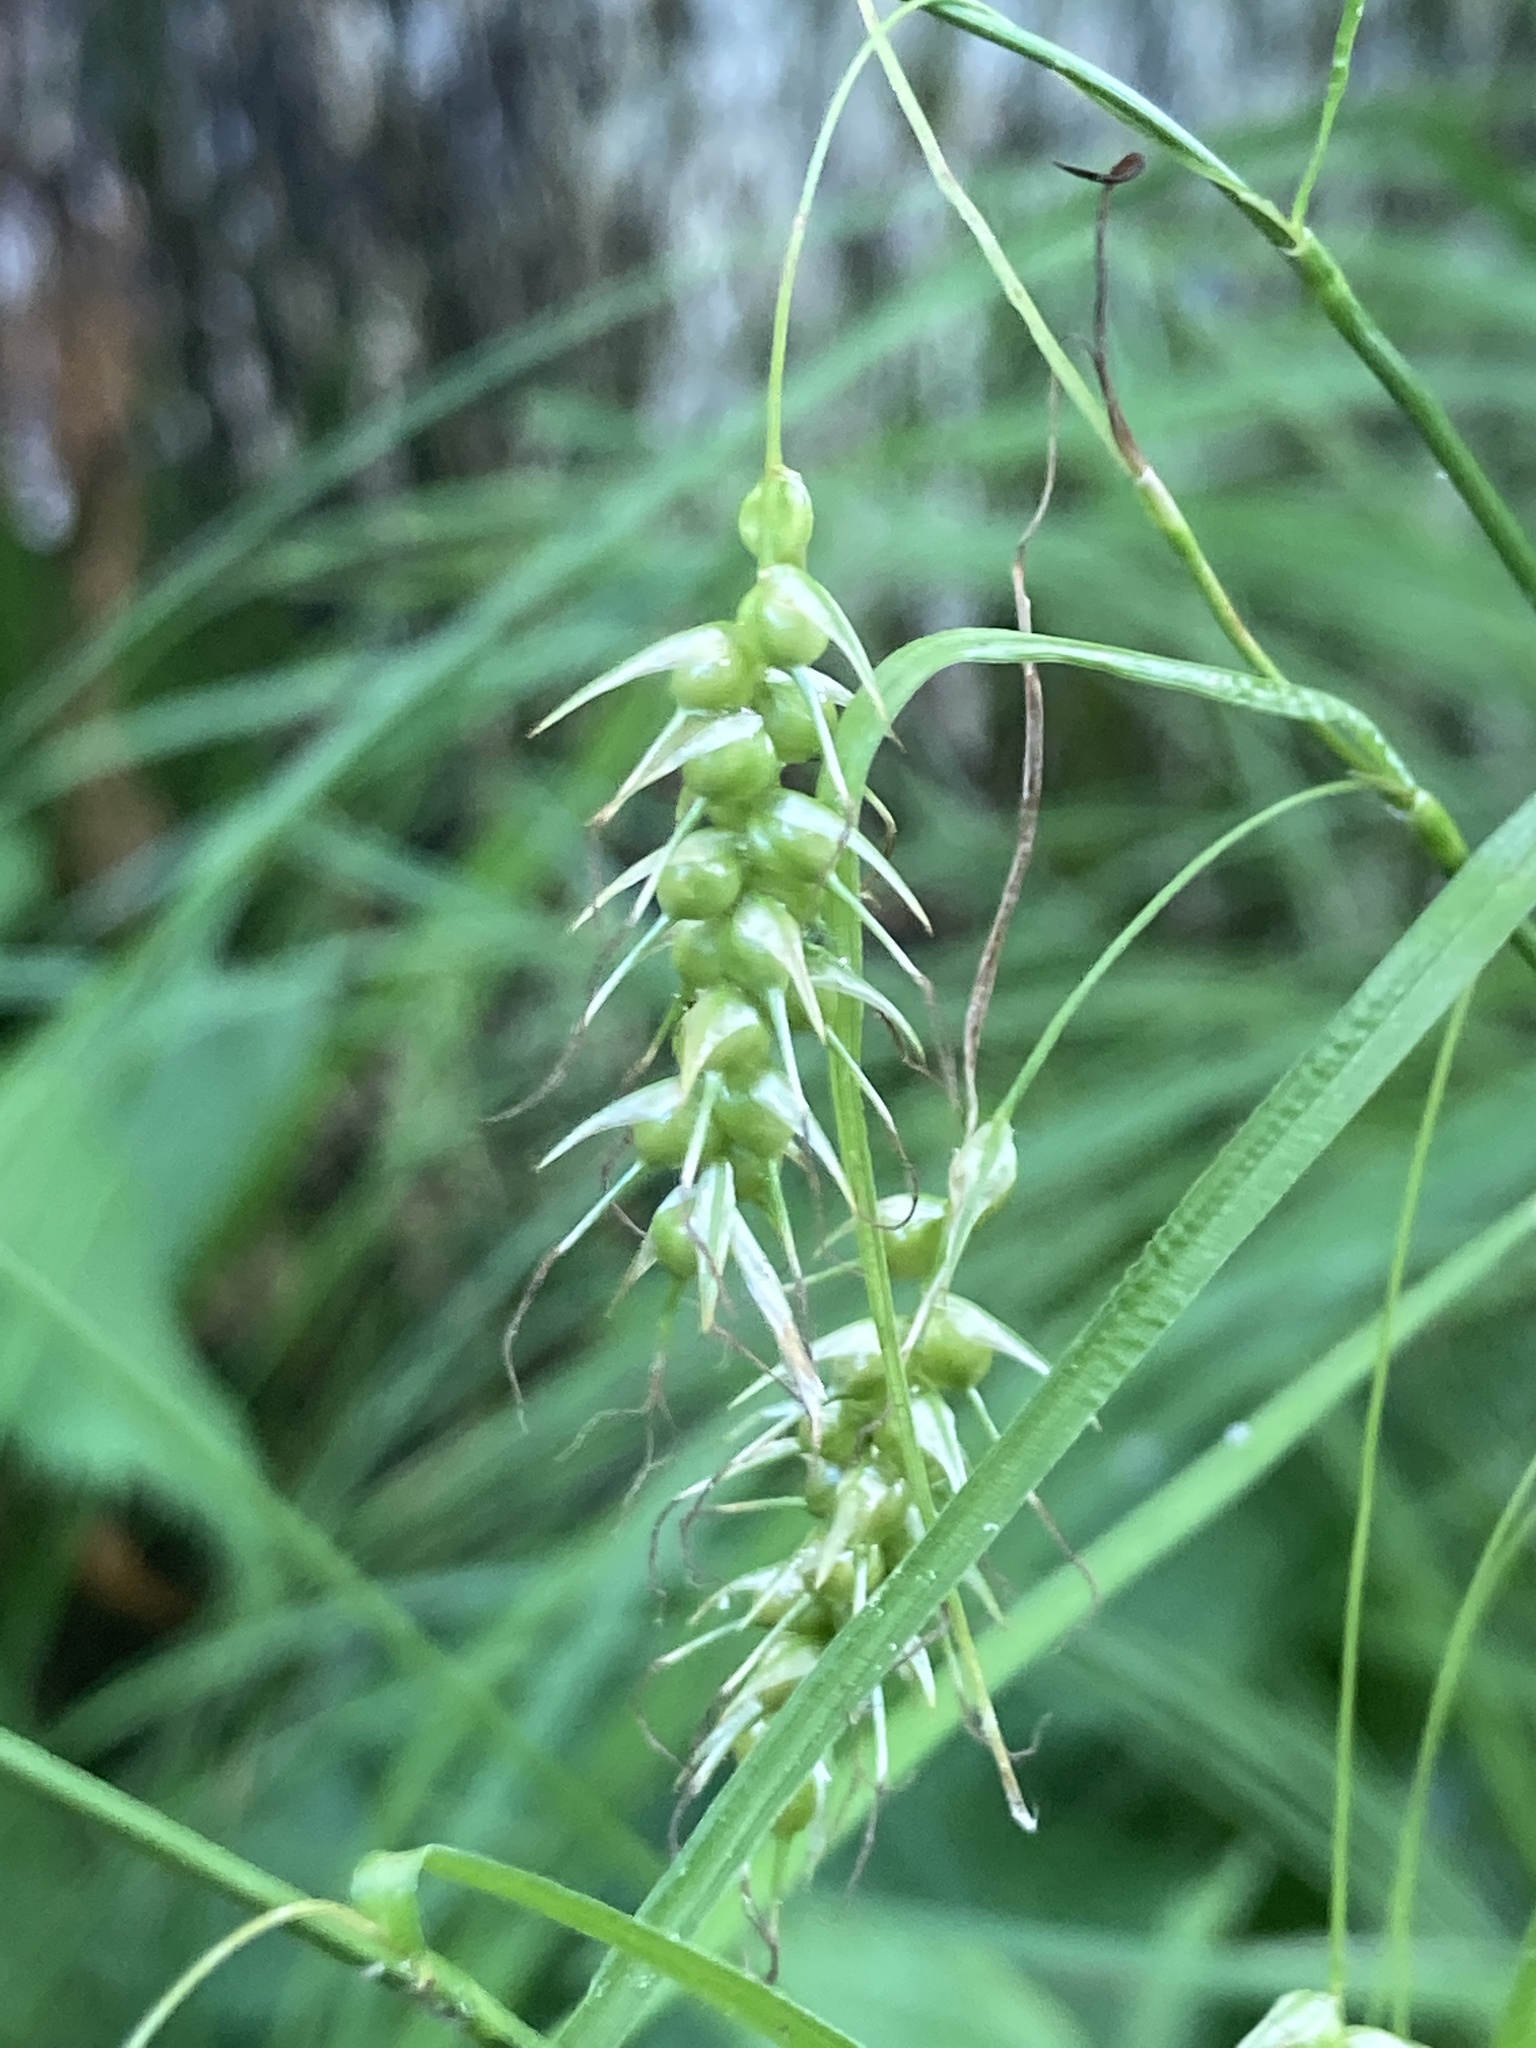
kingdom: Plantae
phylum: Tracheophyta
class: Liliopsida
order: Poales
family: Cyperaceae
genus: Carex
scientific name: Carex sprengelii
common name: Long-beaked sedge
